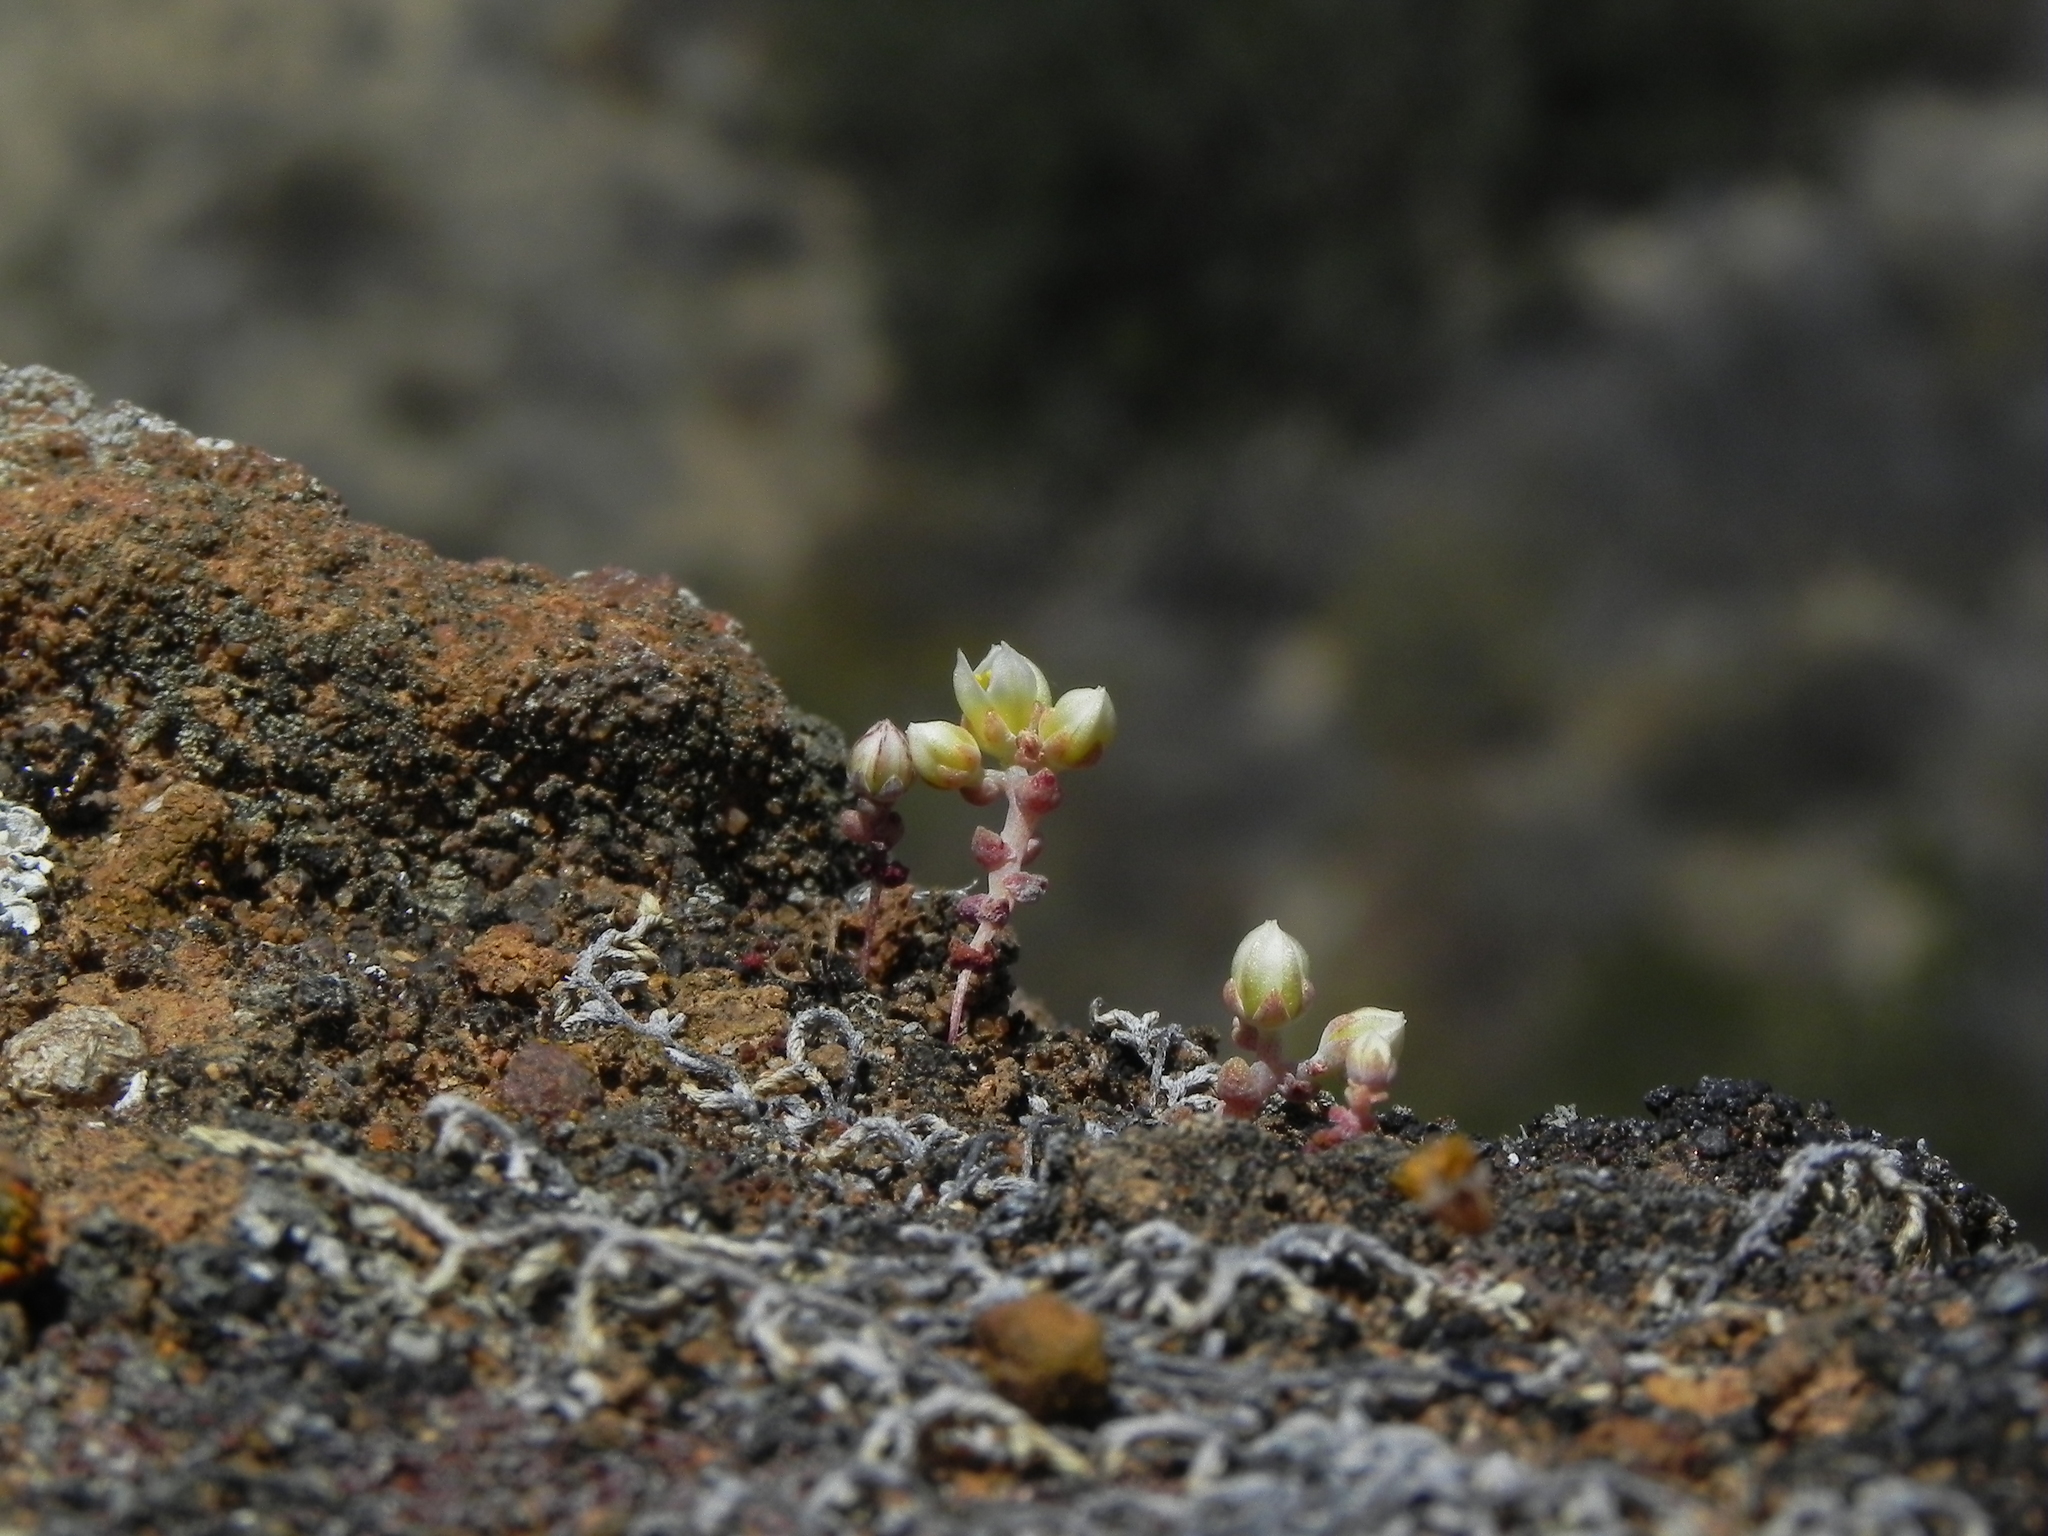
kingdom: Plantae
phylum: Tracheophyta
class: Magnoliopsida
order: Saxifragales
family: Crassulaceae
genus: Dudleya
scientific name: Dudleya blochmaniae
